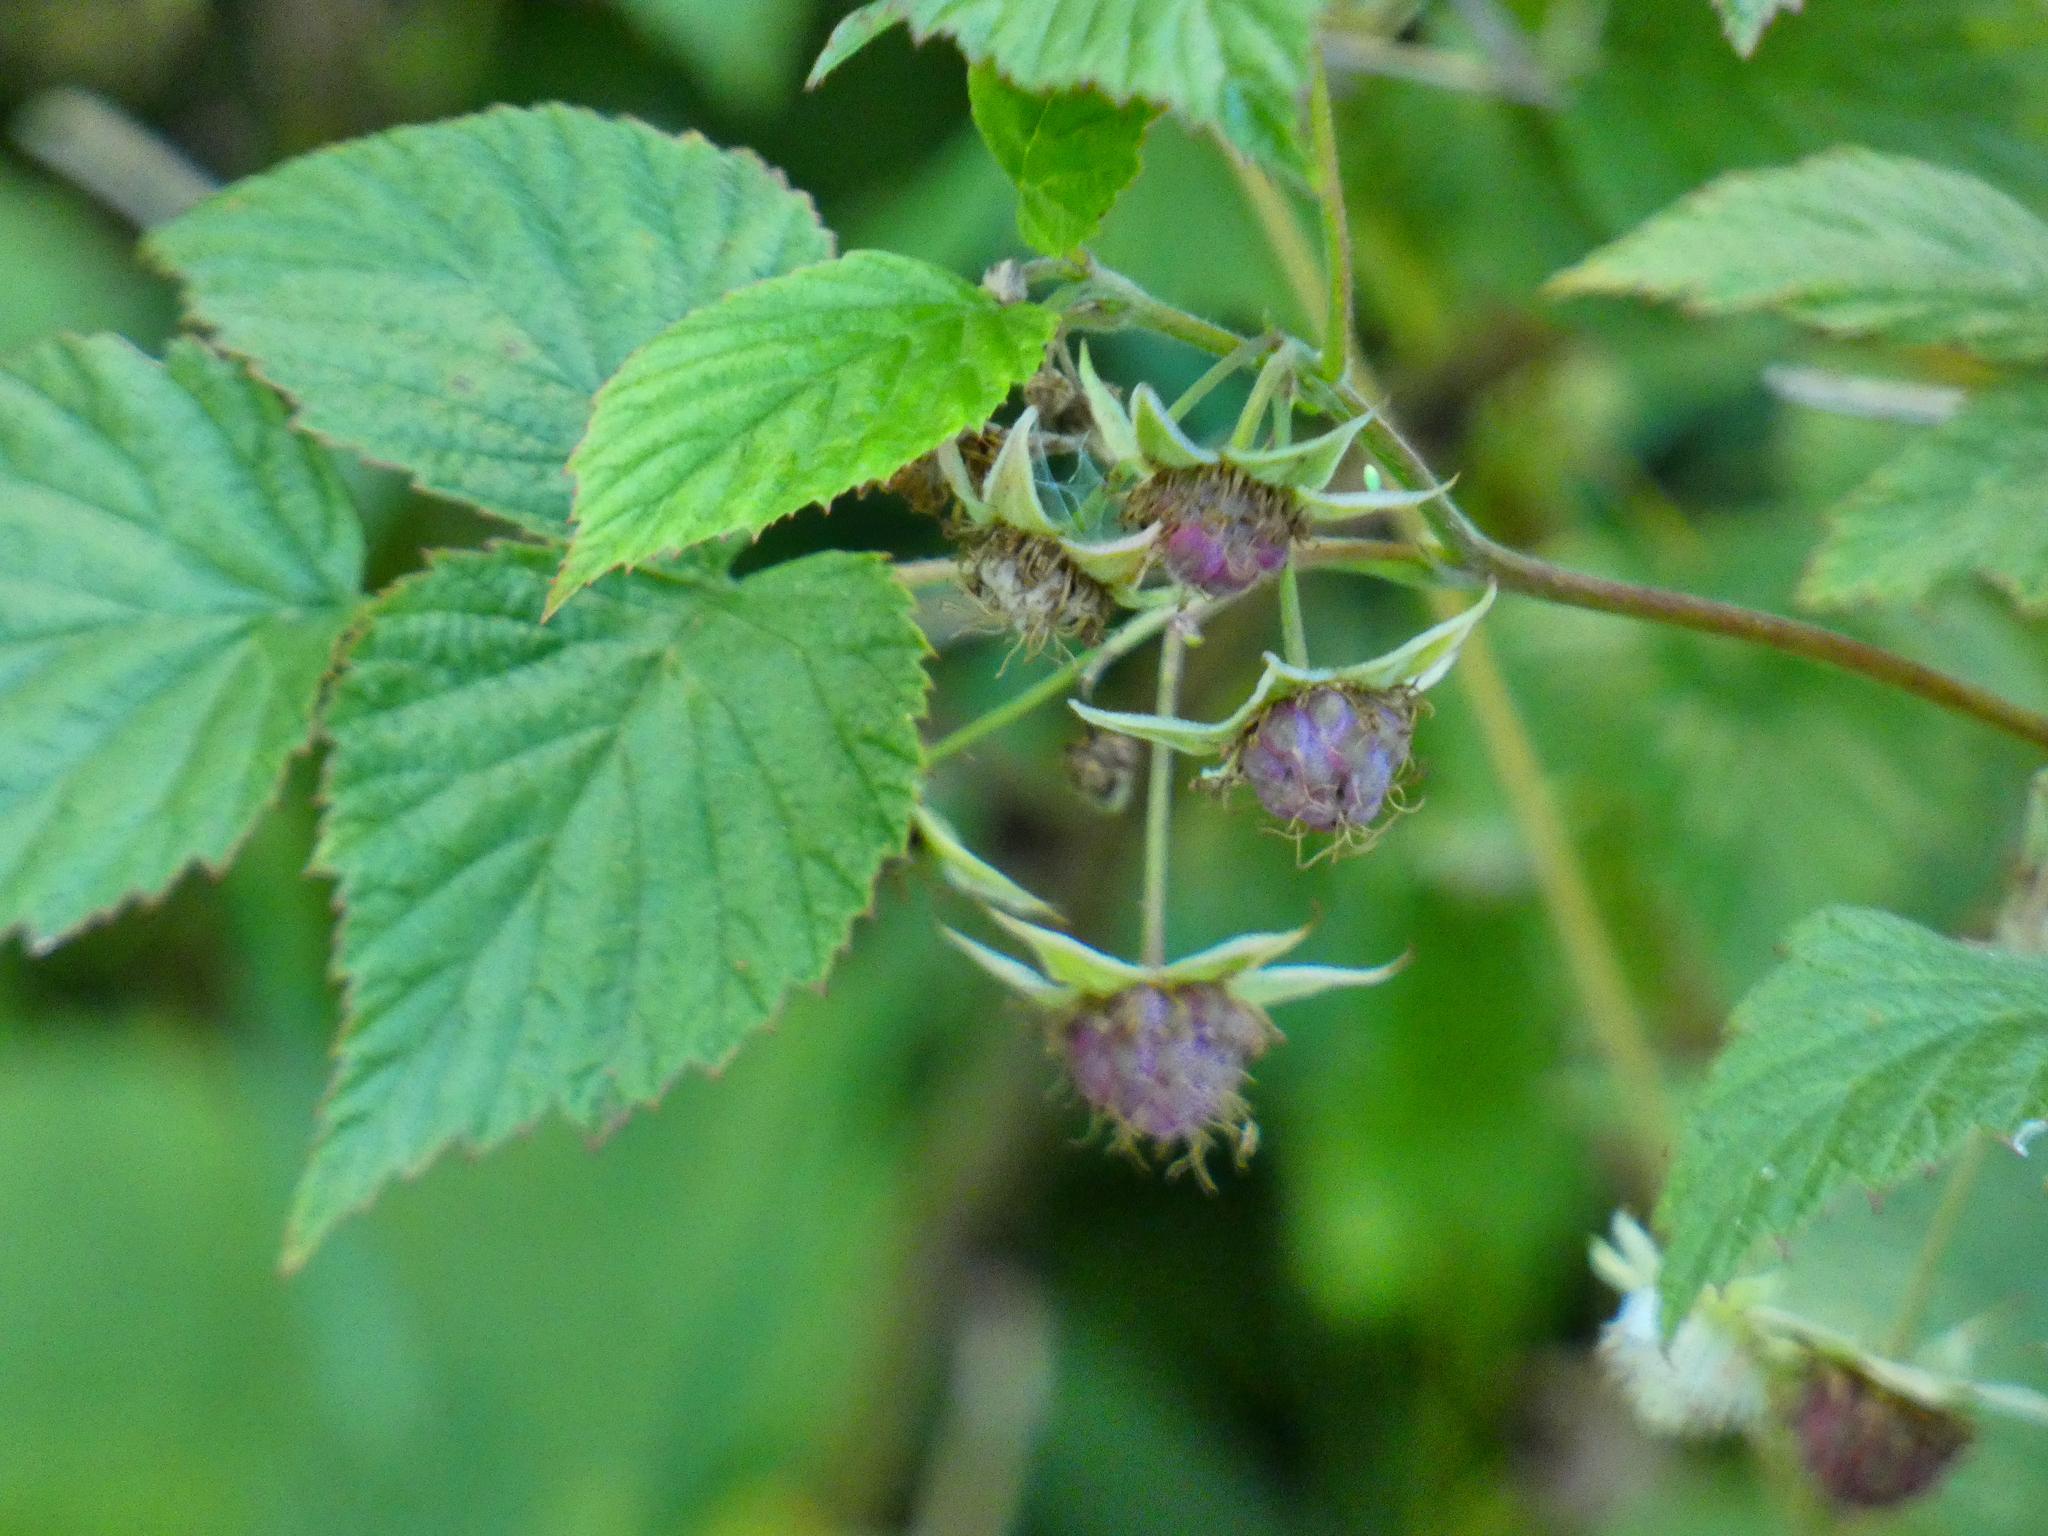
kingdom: Plantae
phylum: Tracheophyta
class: Magnoliopsida
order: Rosales
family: Rosaceae
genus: Rubus
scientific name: Rubus idaeus
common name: Raspberry
